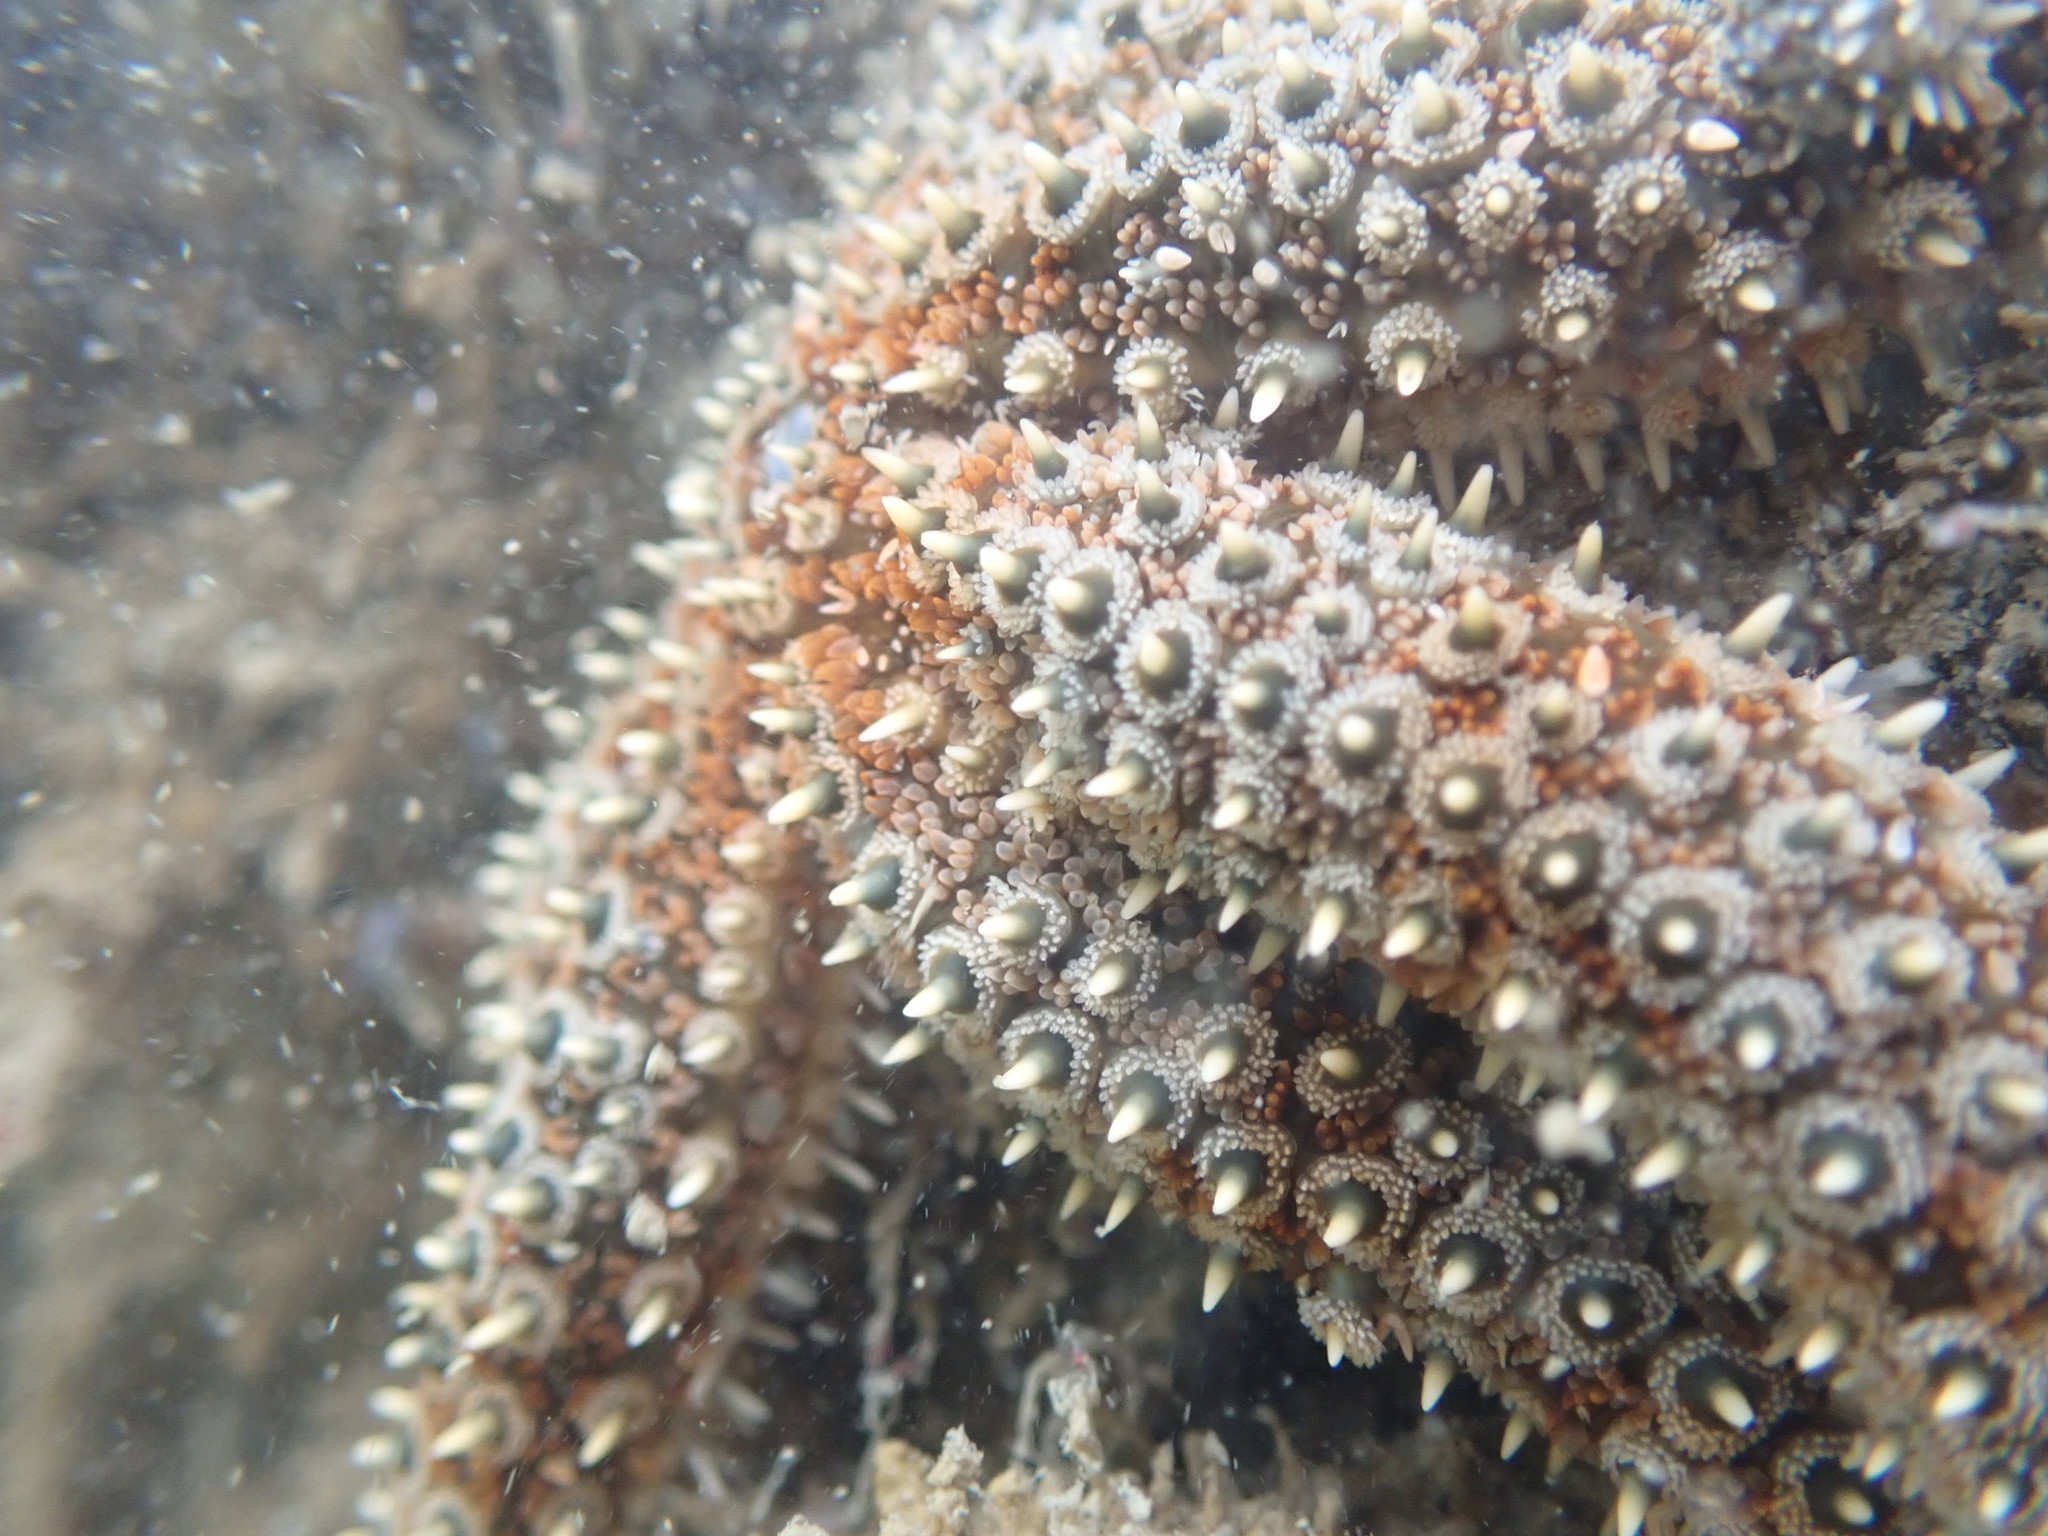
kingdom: Animalia
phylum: Echinodermata
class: Asteroidea
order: Forcipulatida
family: Asteriidae
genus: Coscinasterias
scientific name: Coscinasterias muricata
